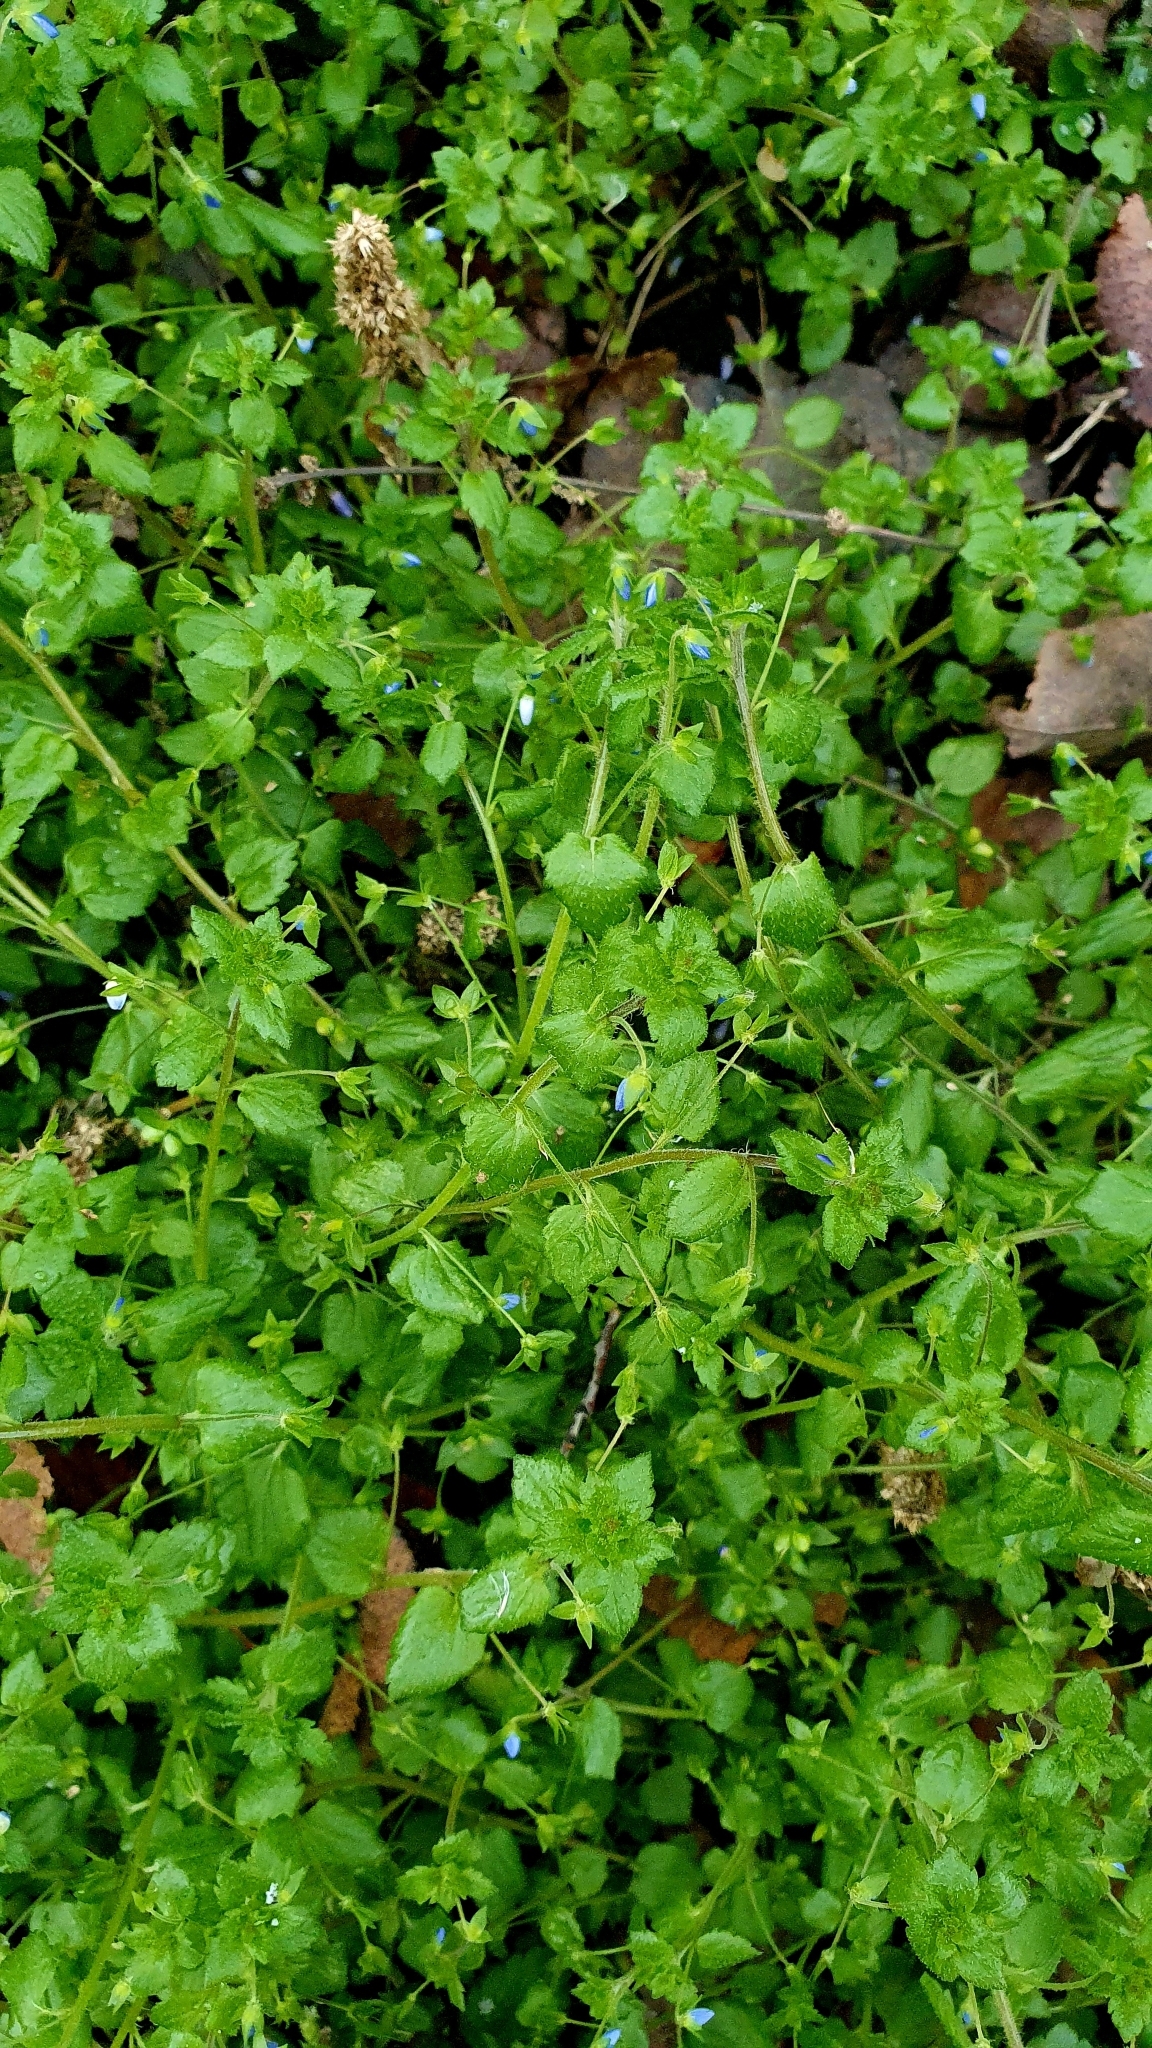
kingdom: Plantae
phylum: Tracheophyta
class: Magnoliopsida
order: Lamiales
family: Plantaginaceae
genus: Veronica
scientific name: Veronica persica
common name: Common field-speedwell
